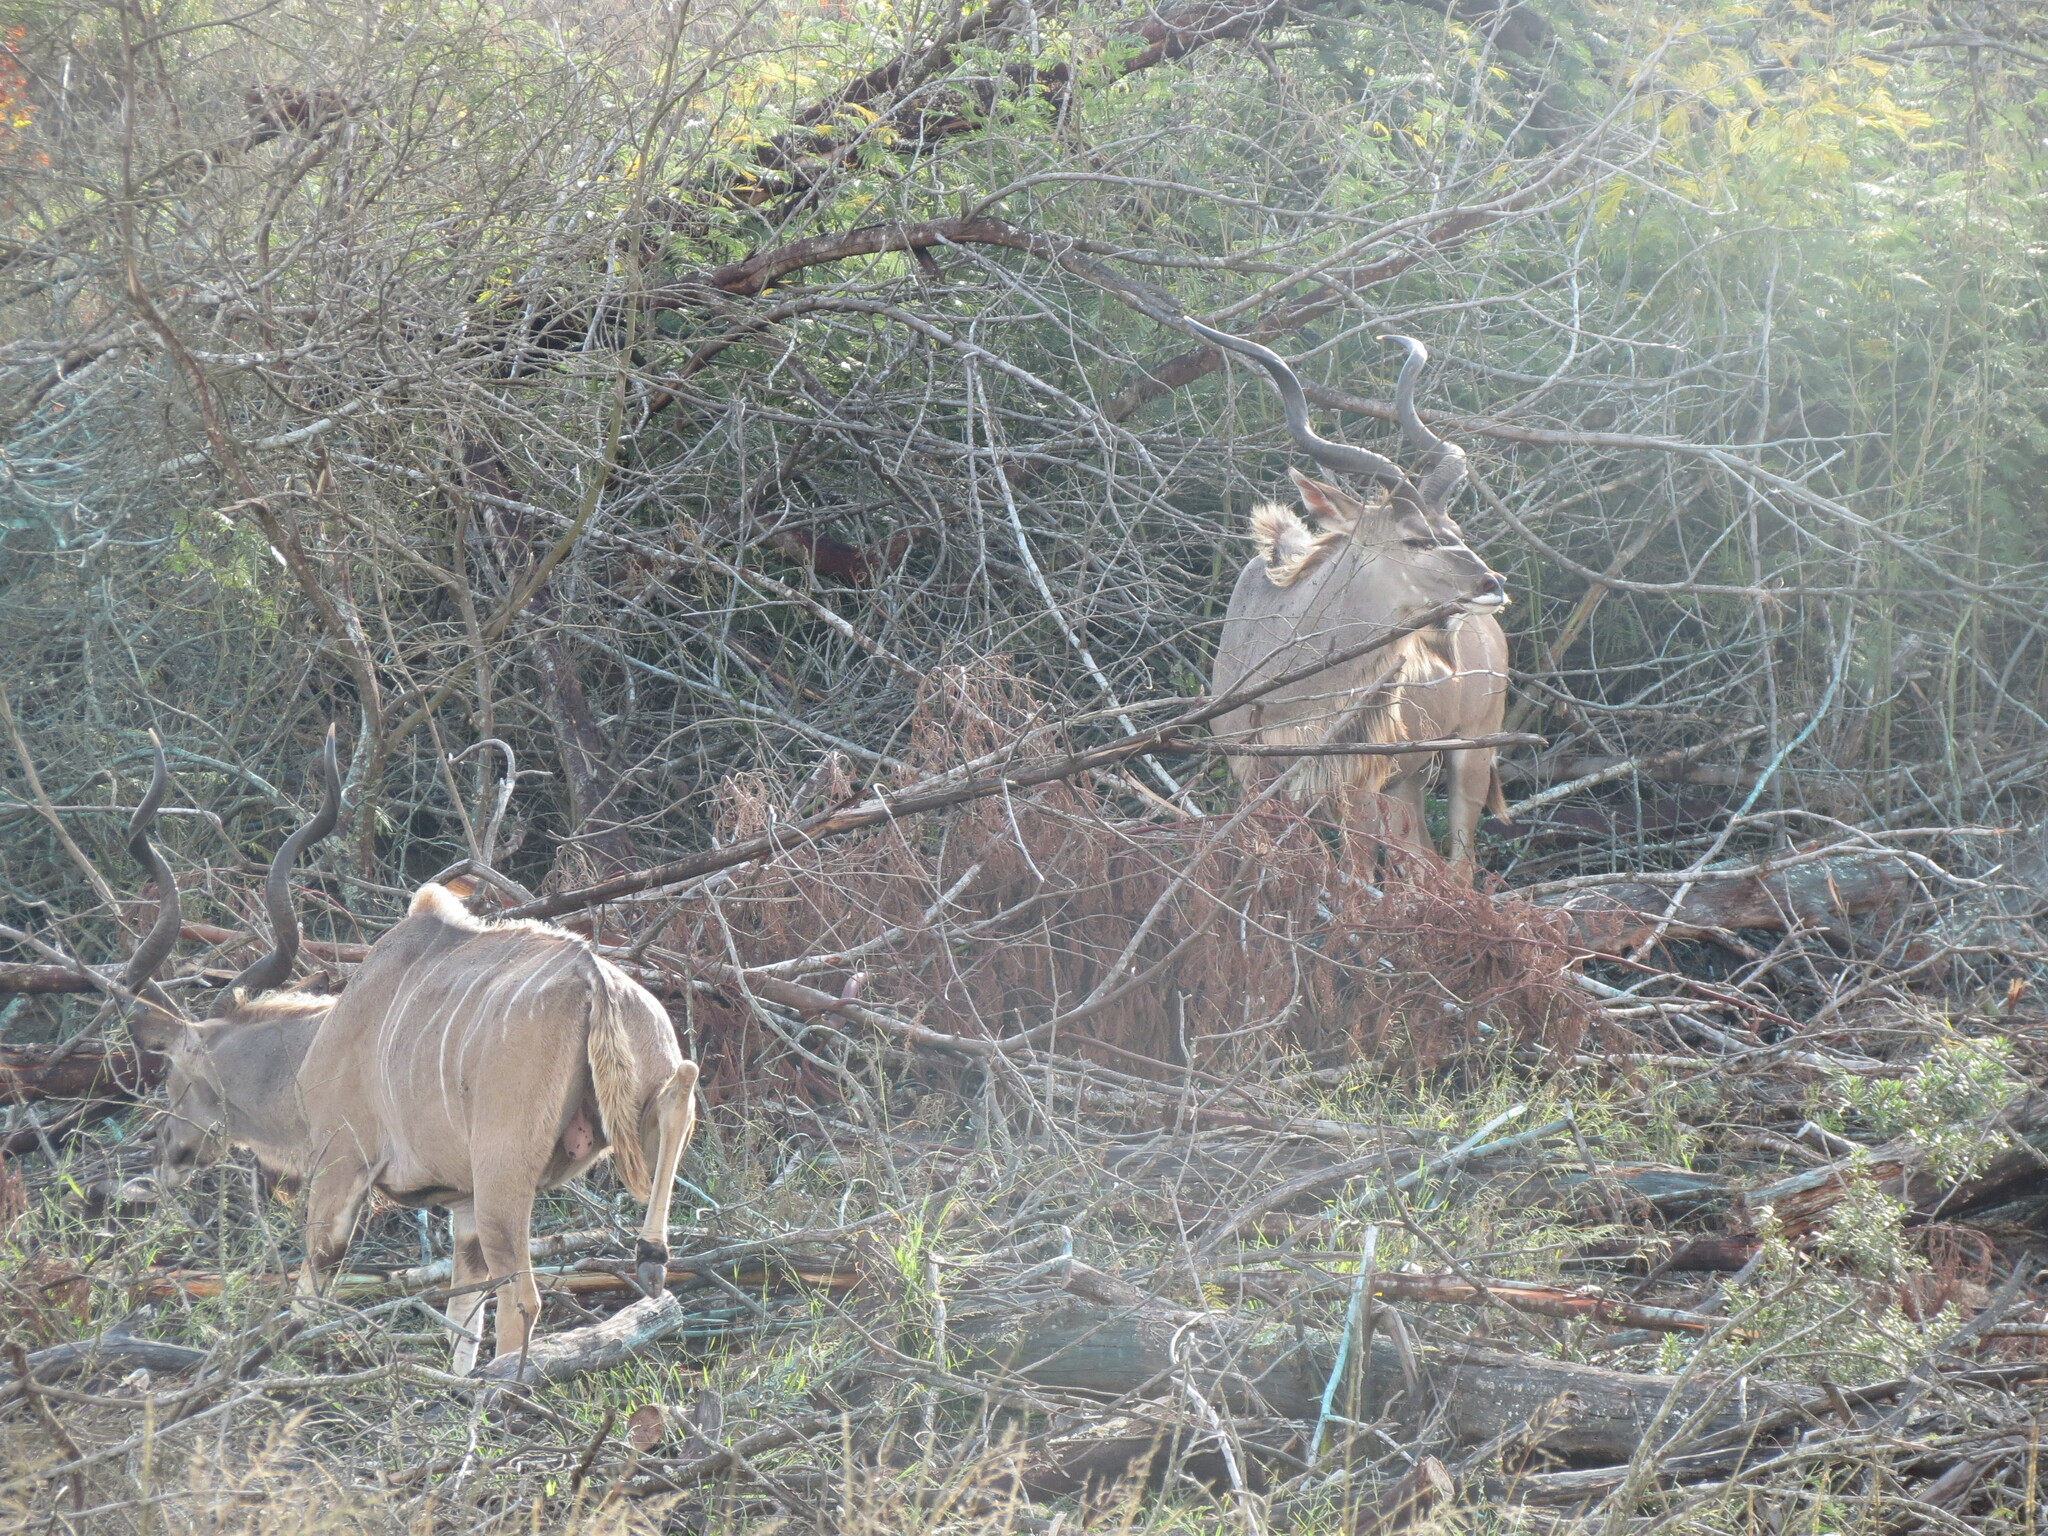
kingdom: Animalia
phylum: Chordata
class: Mammalia
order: Artiodactyla
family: Bovidae
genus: Tragelaphus
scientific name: Tragelaphus strepsiceros
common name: Greater kudu
